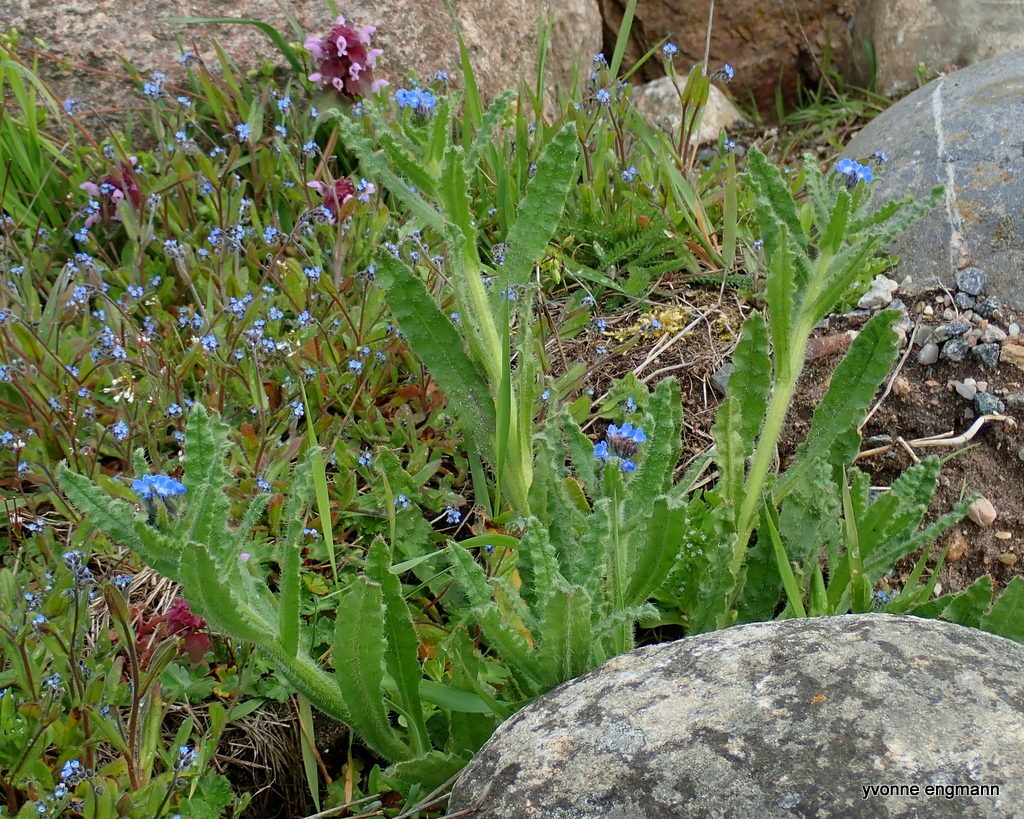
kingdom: Plantae
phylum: Tracheophyta
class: Magnoliopsida
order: Boraginales
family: Boraginaceae
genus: Lycopsis
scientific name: Lycopsis arvensis
